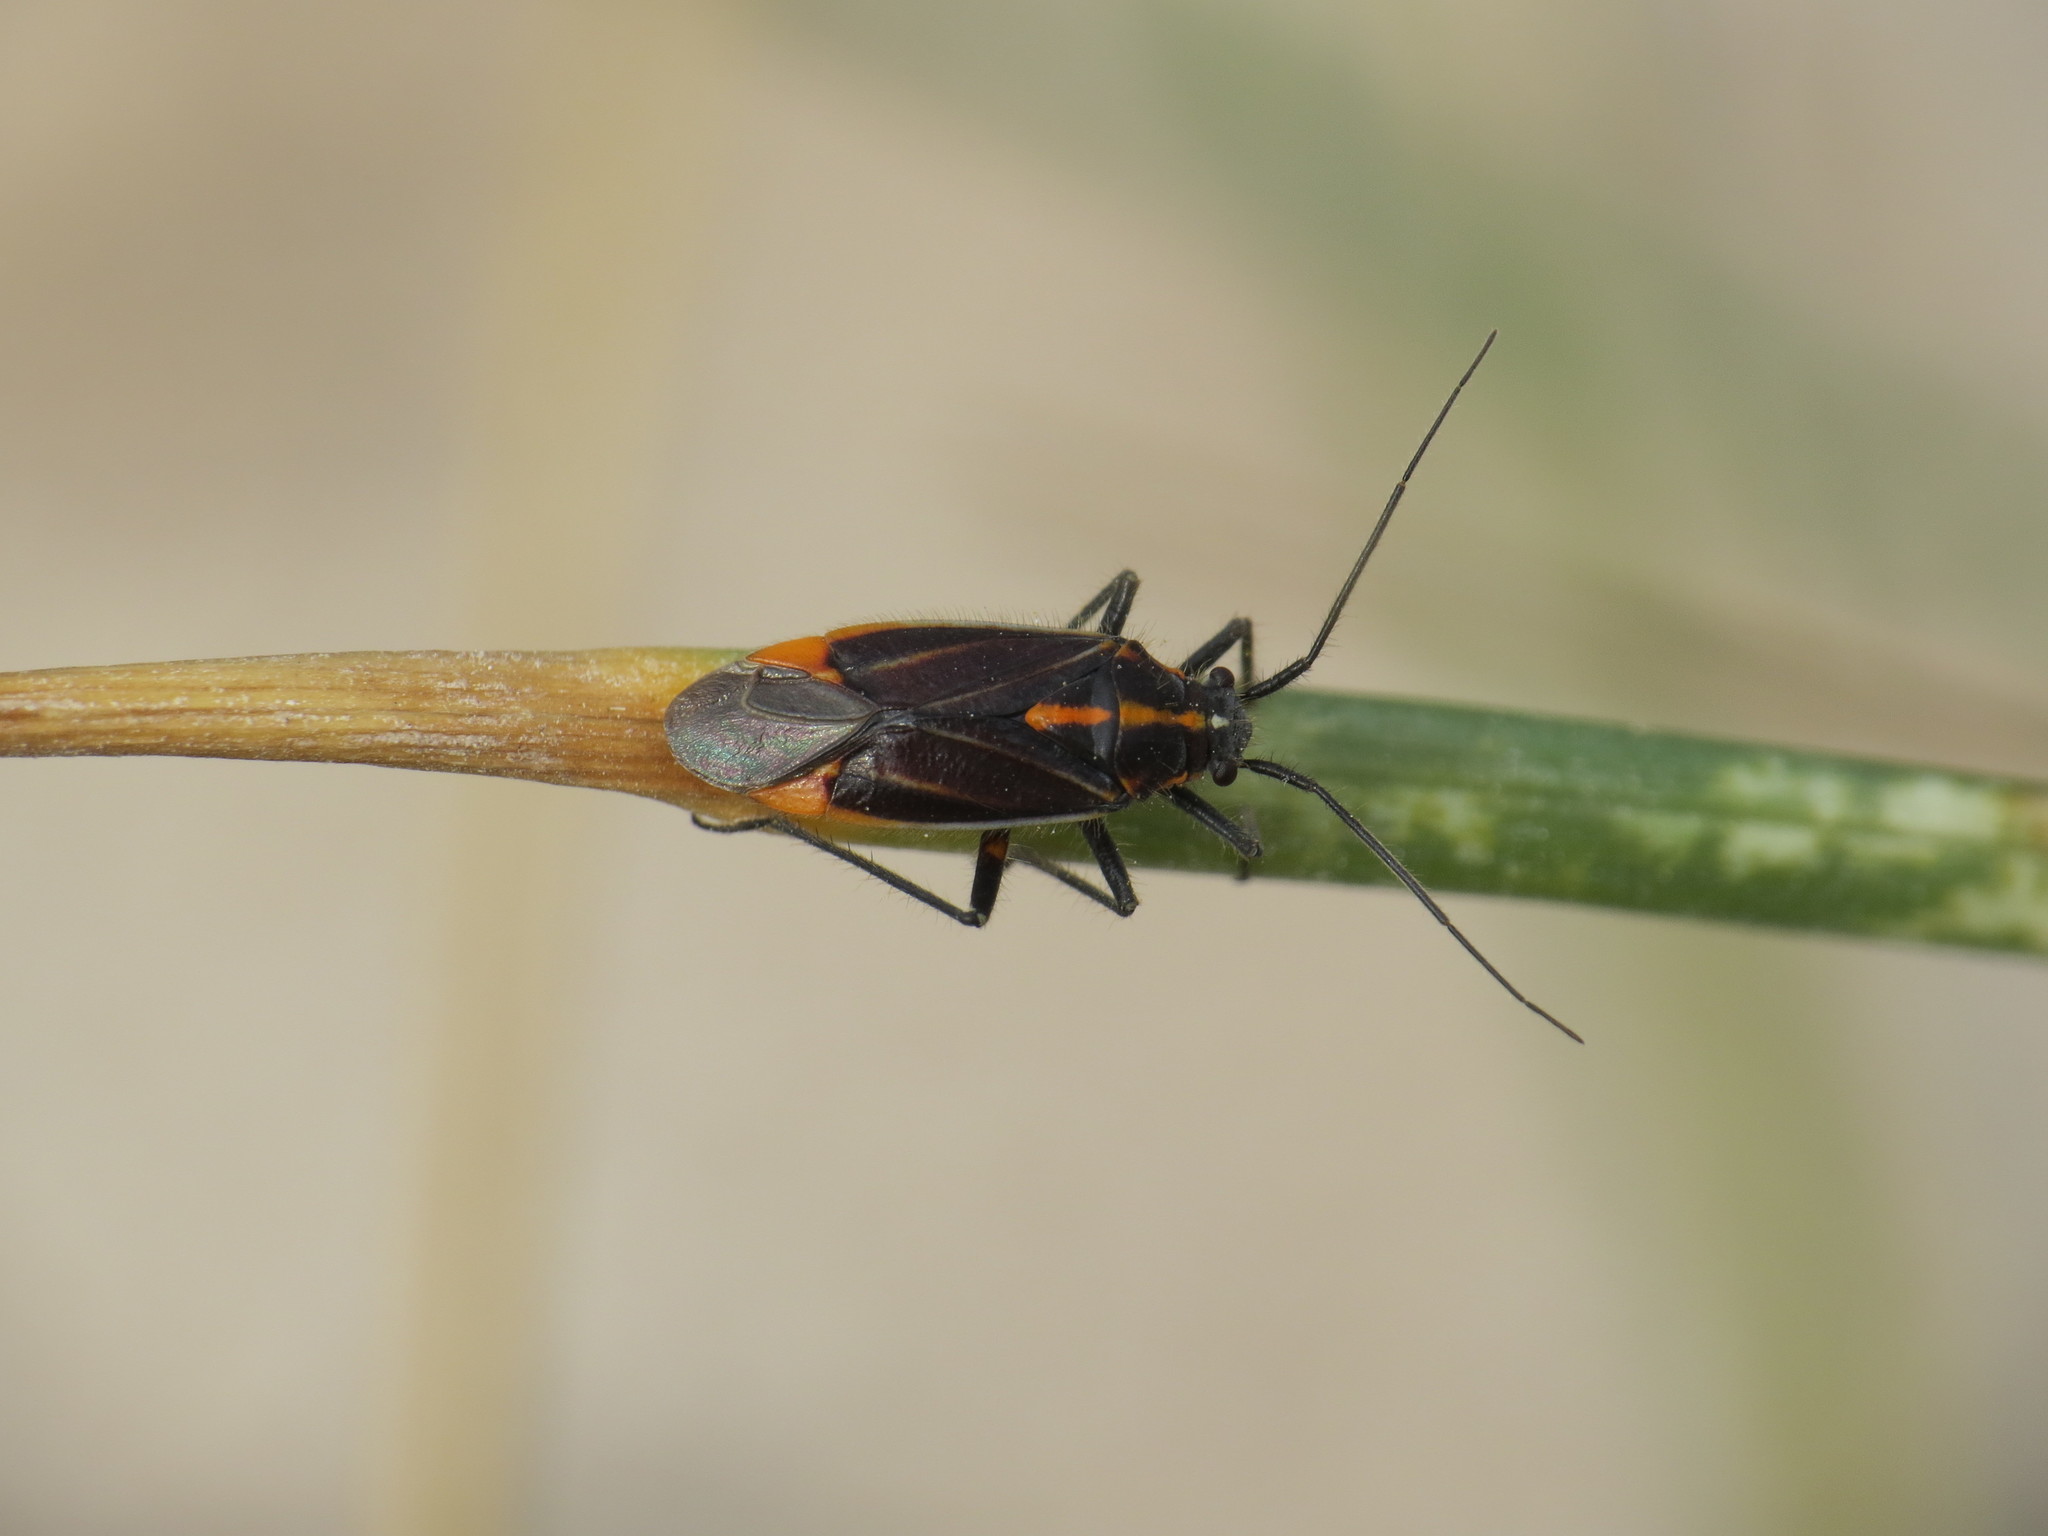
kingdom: Animalia
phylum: Arthropoda
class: Insecta
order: Hemiptera
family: Miridae
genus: Horistus
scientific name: Horistus orientalis
